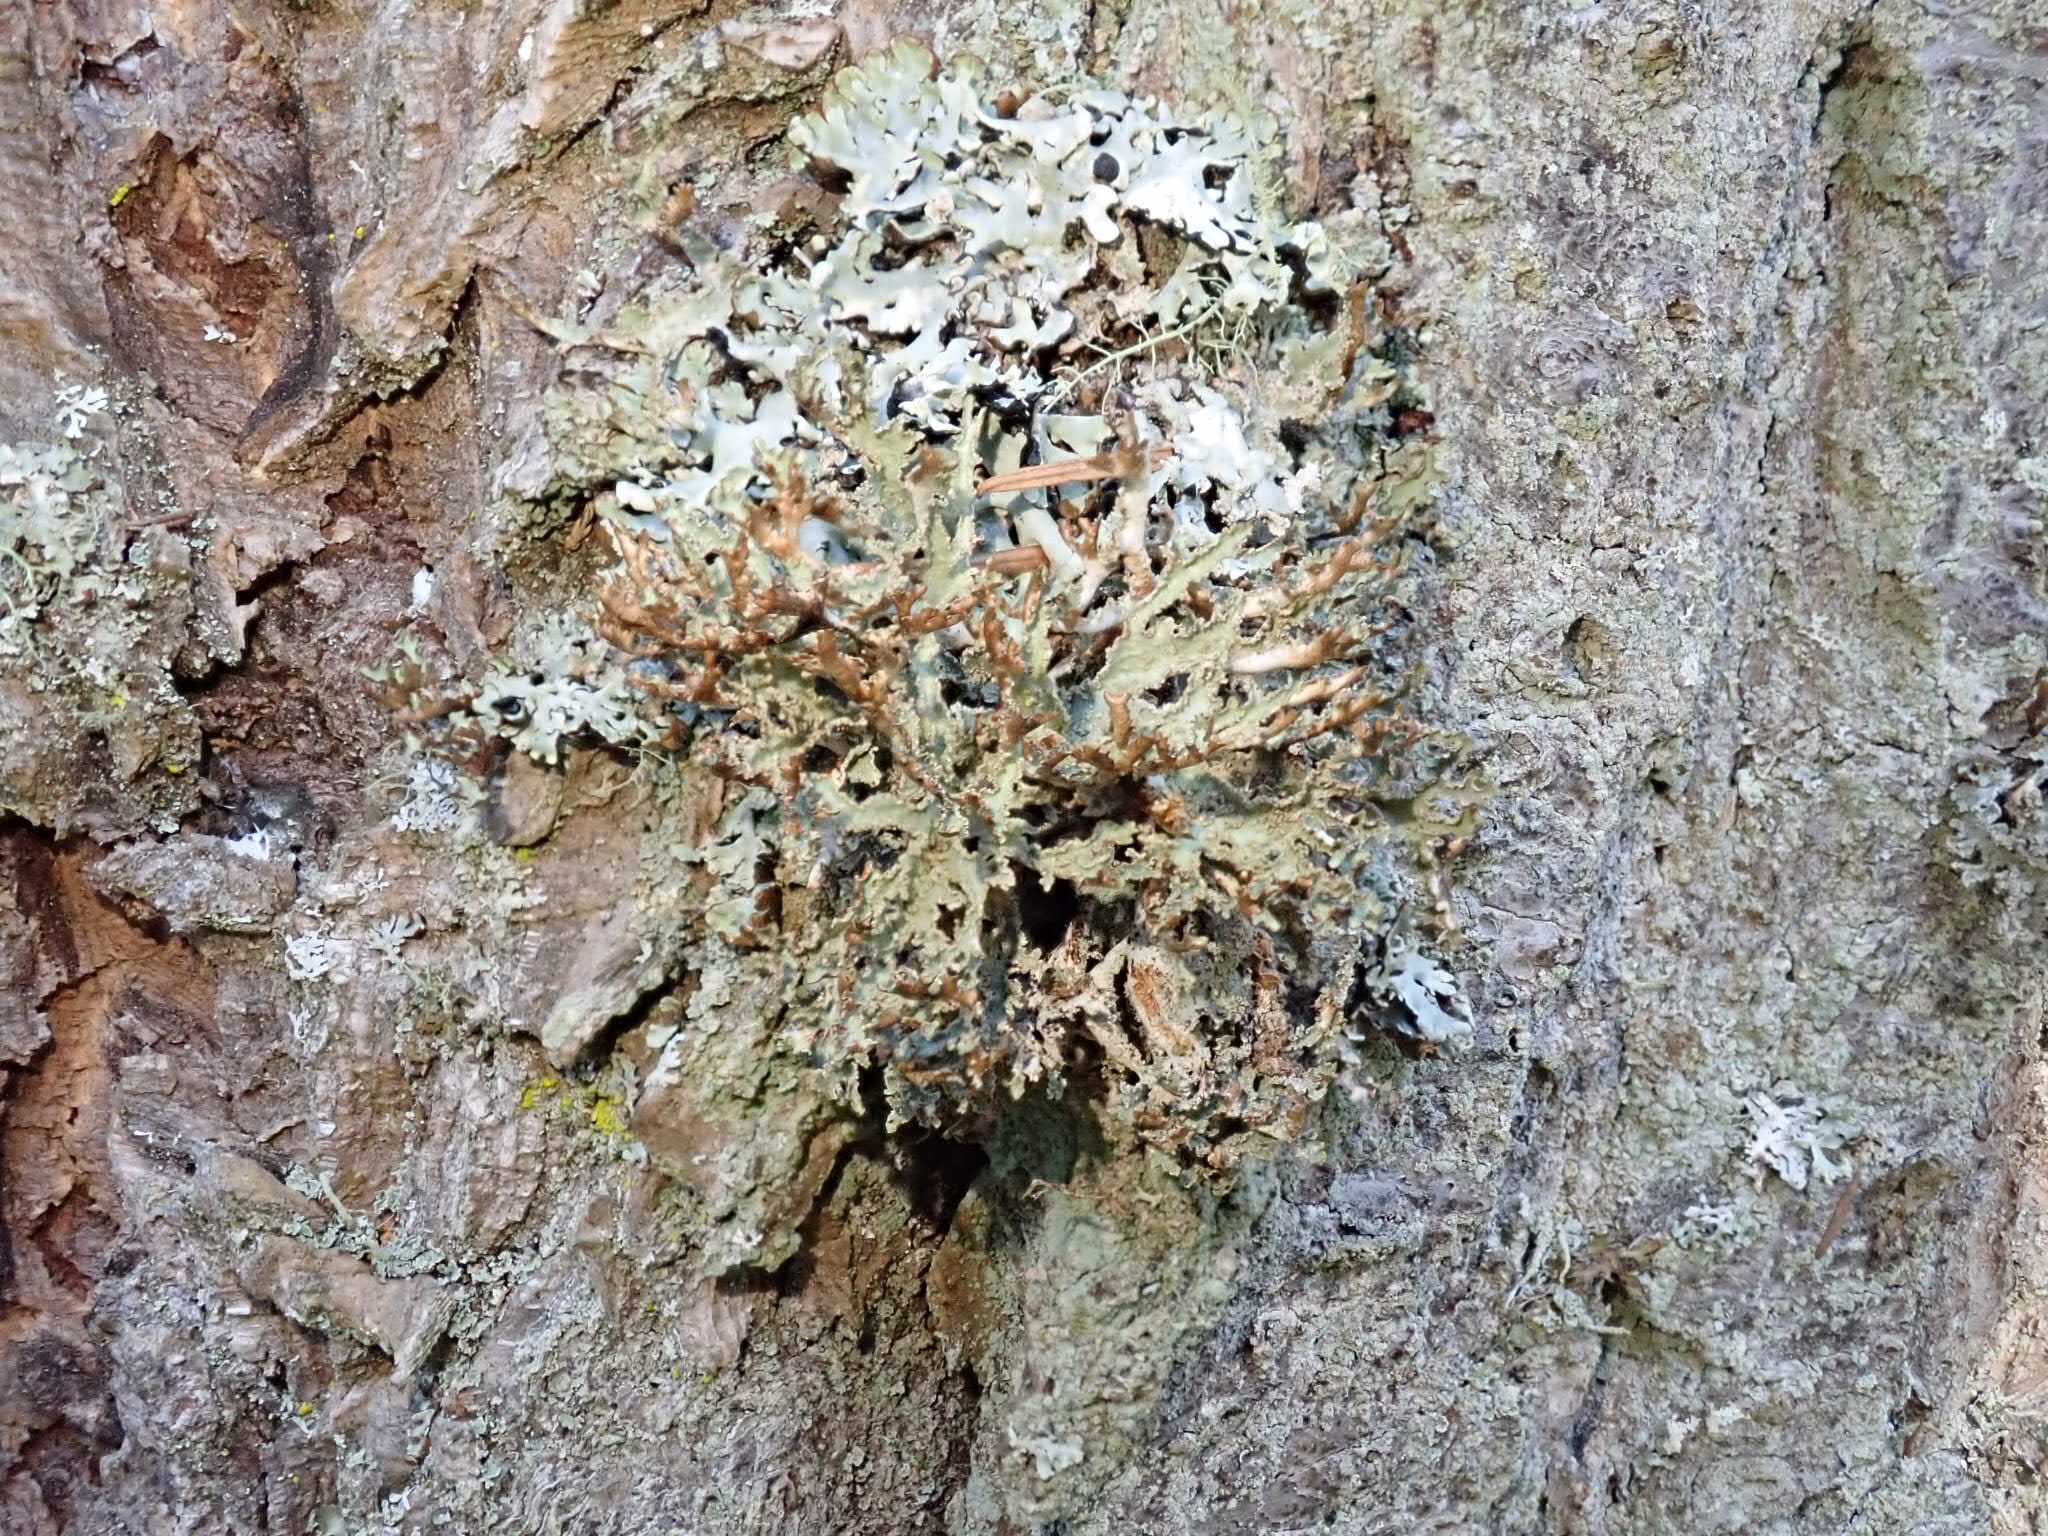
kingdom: Fungi
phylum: Ascomycota
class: Lecanoromycetes
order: Lecanorales
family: Parmeliaceae
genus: Platismatia
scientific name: Platismatia herrei
